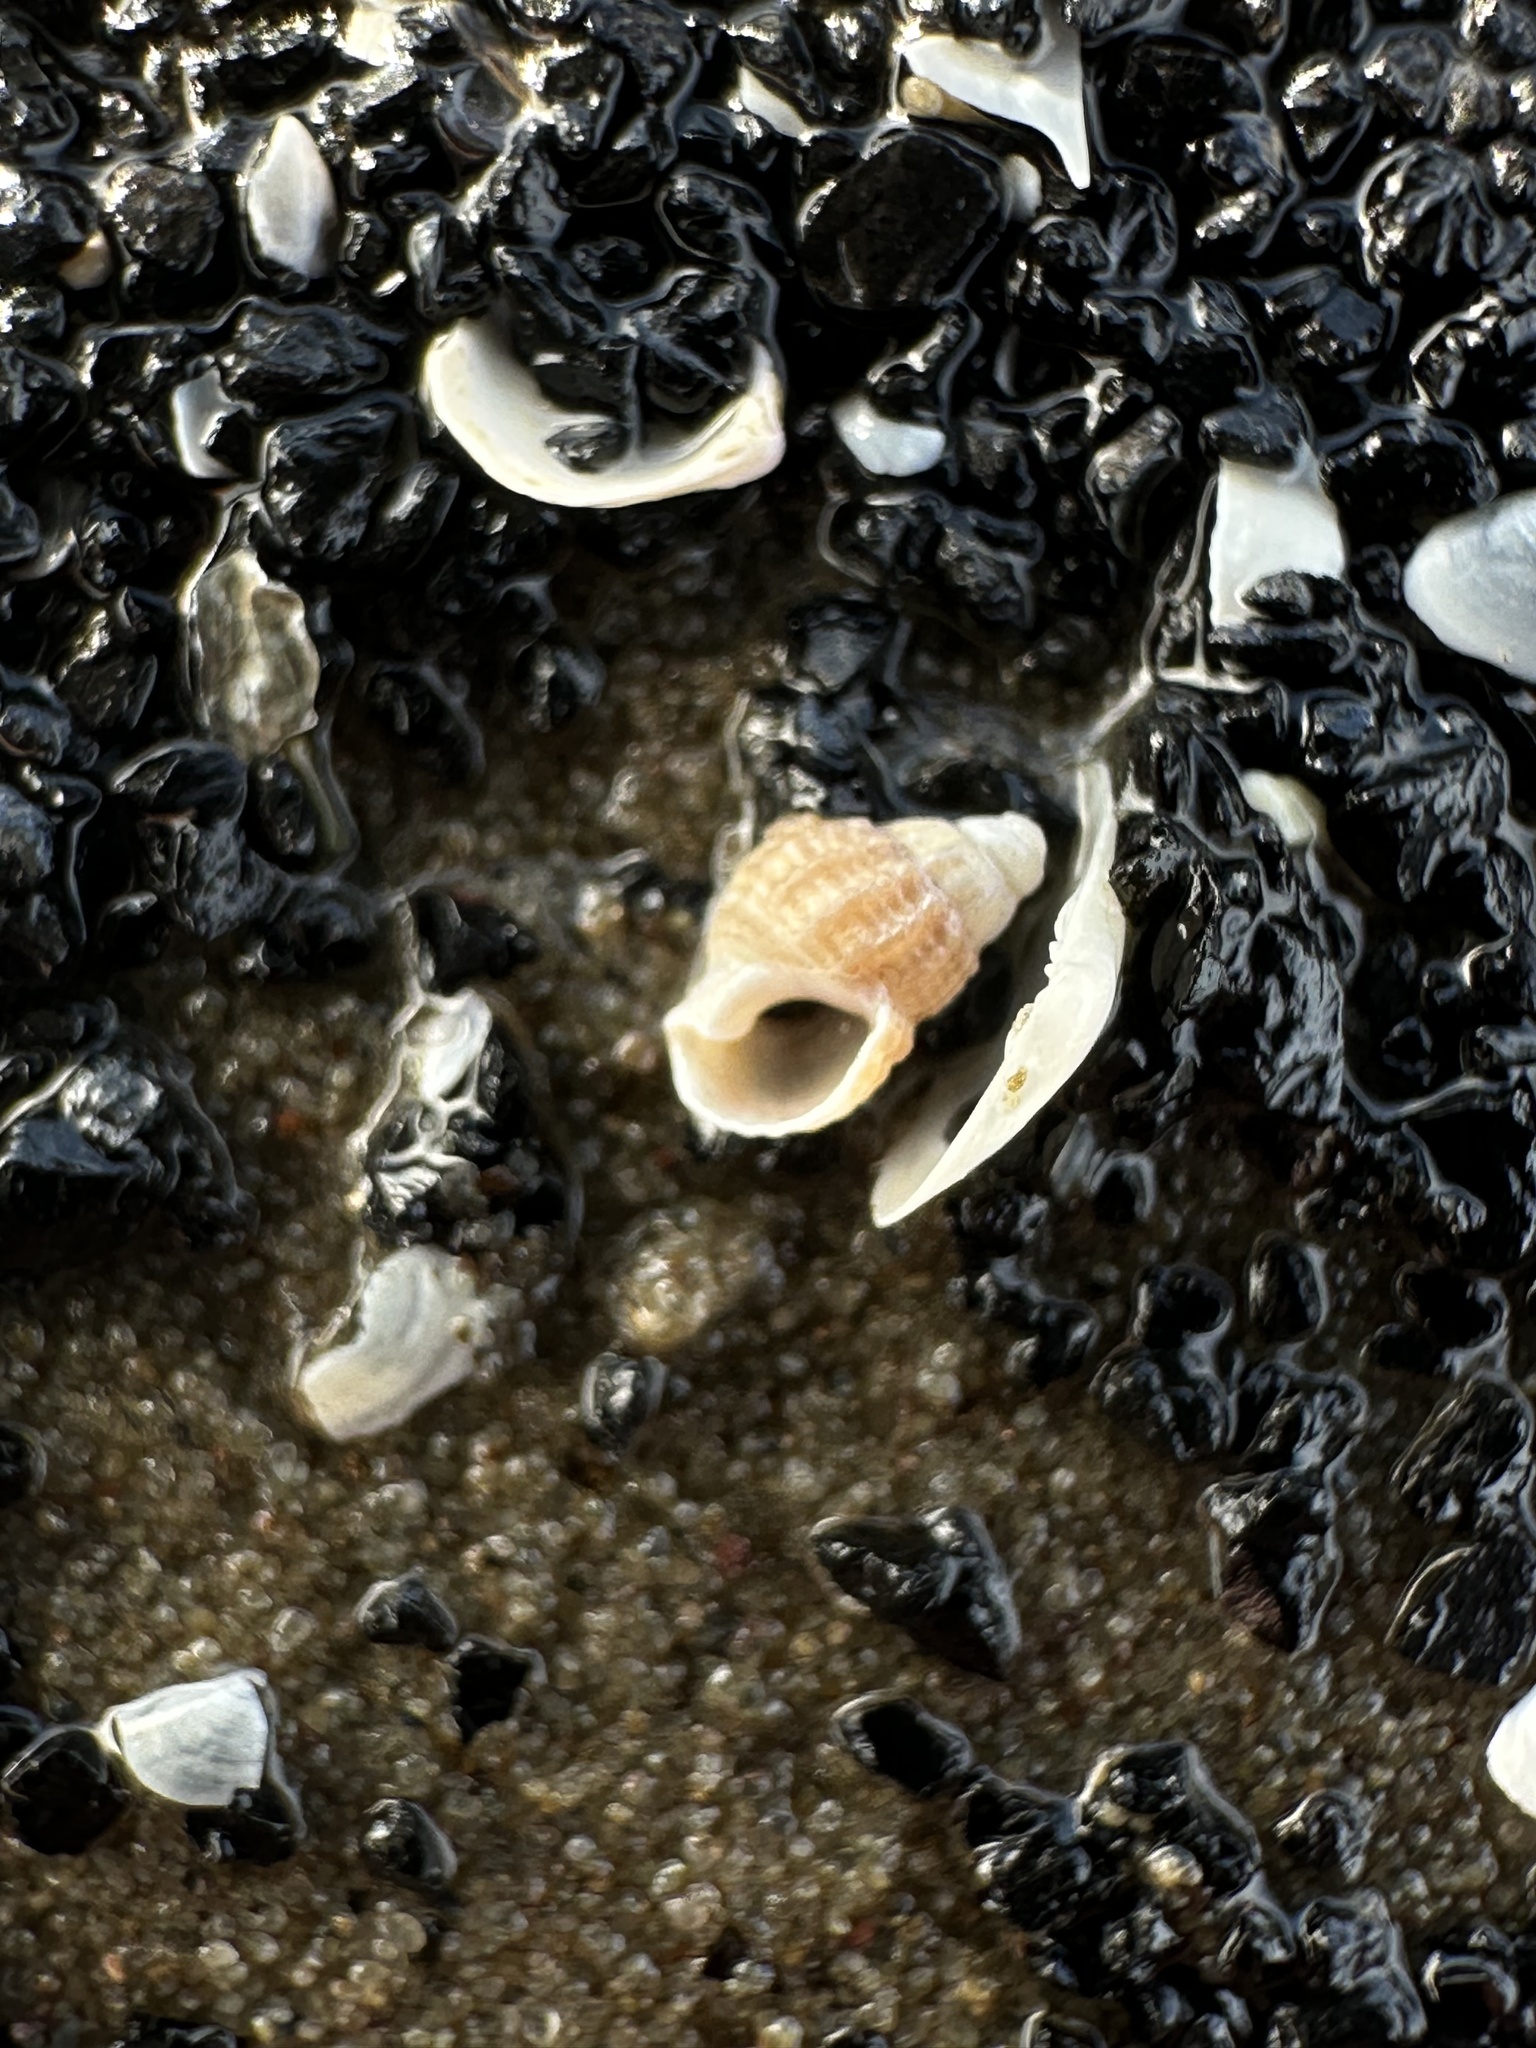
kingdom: Animalia
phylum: Mollusca
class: Gastropoda
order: Neogastropoda
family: Nassariidae
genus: Ilyanassa
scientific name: Ilyanassa trivittata
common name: Three-line mudsnail
